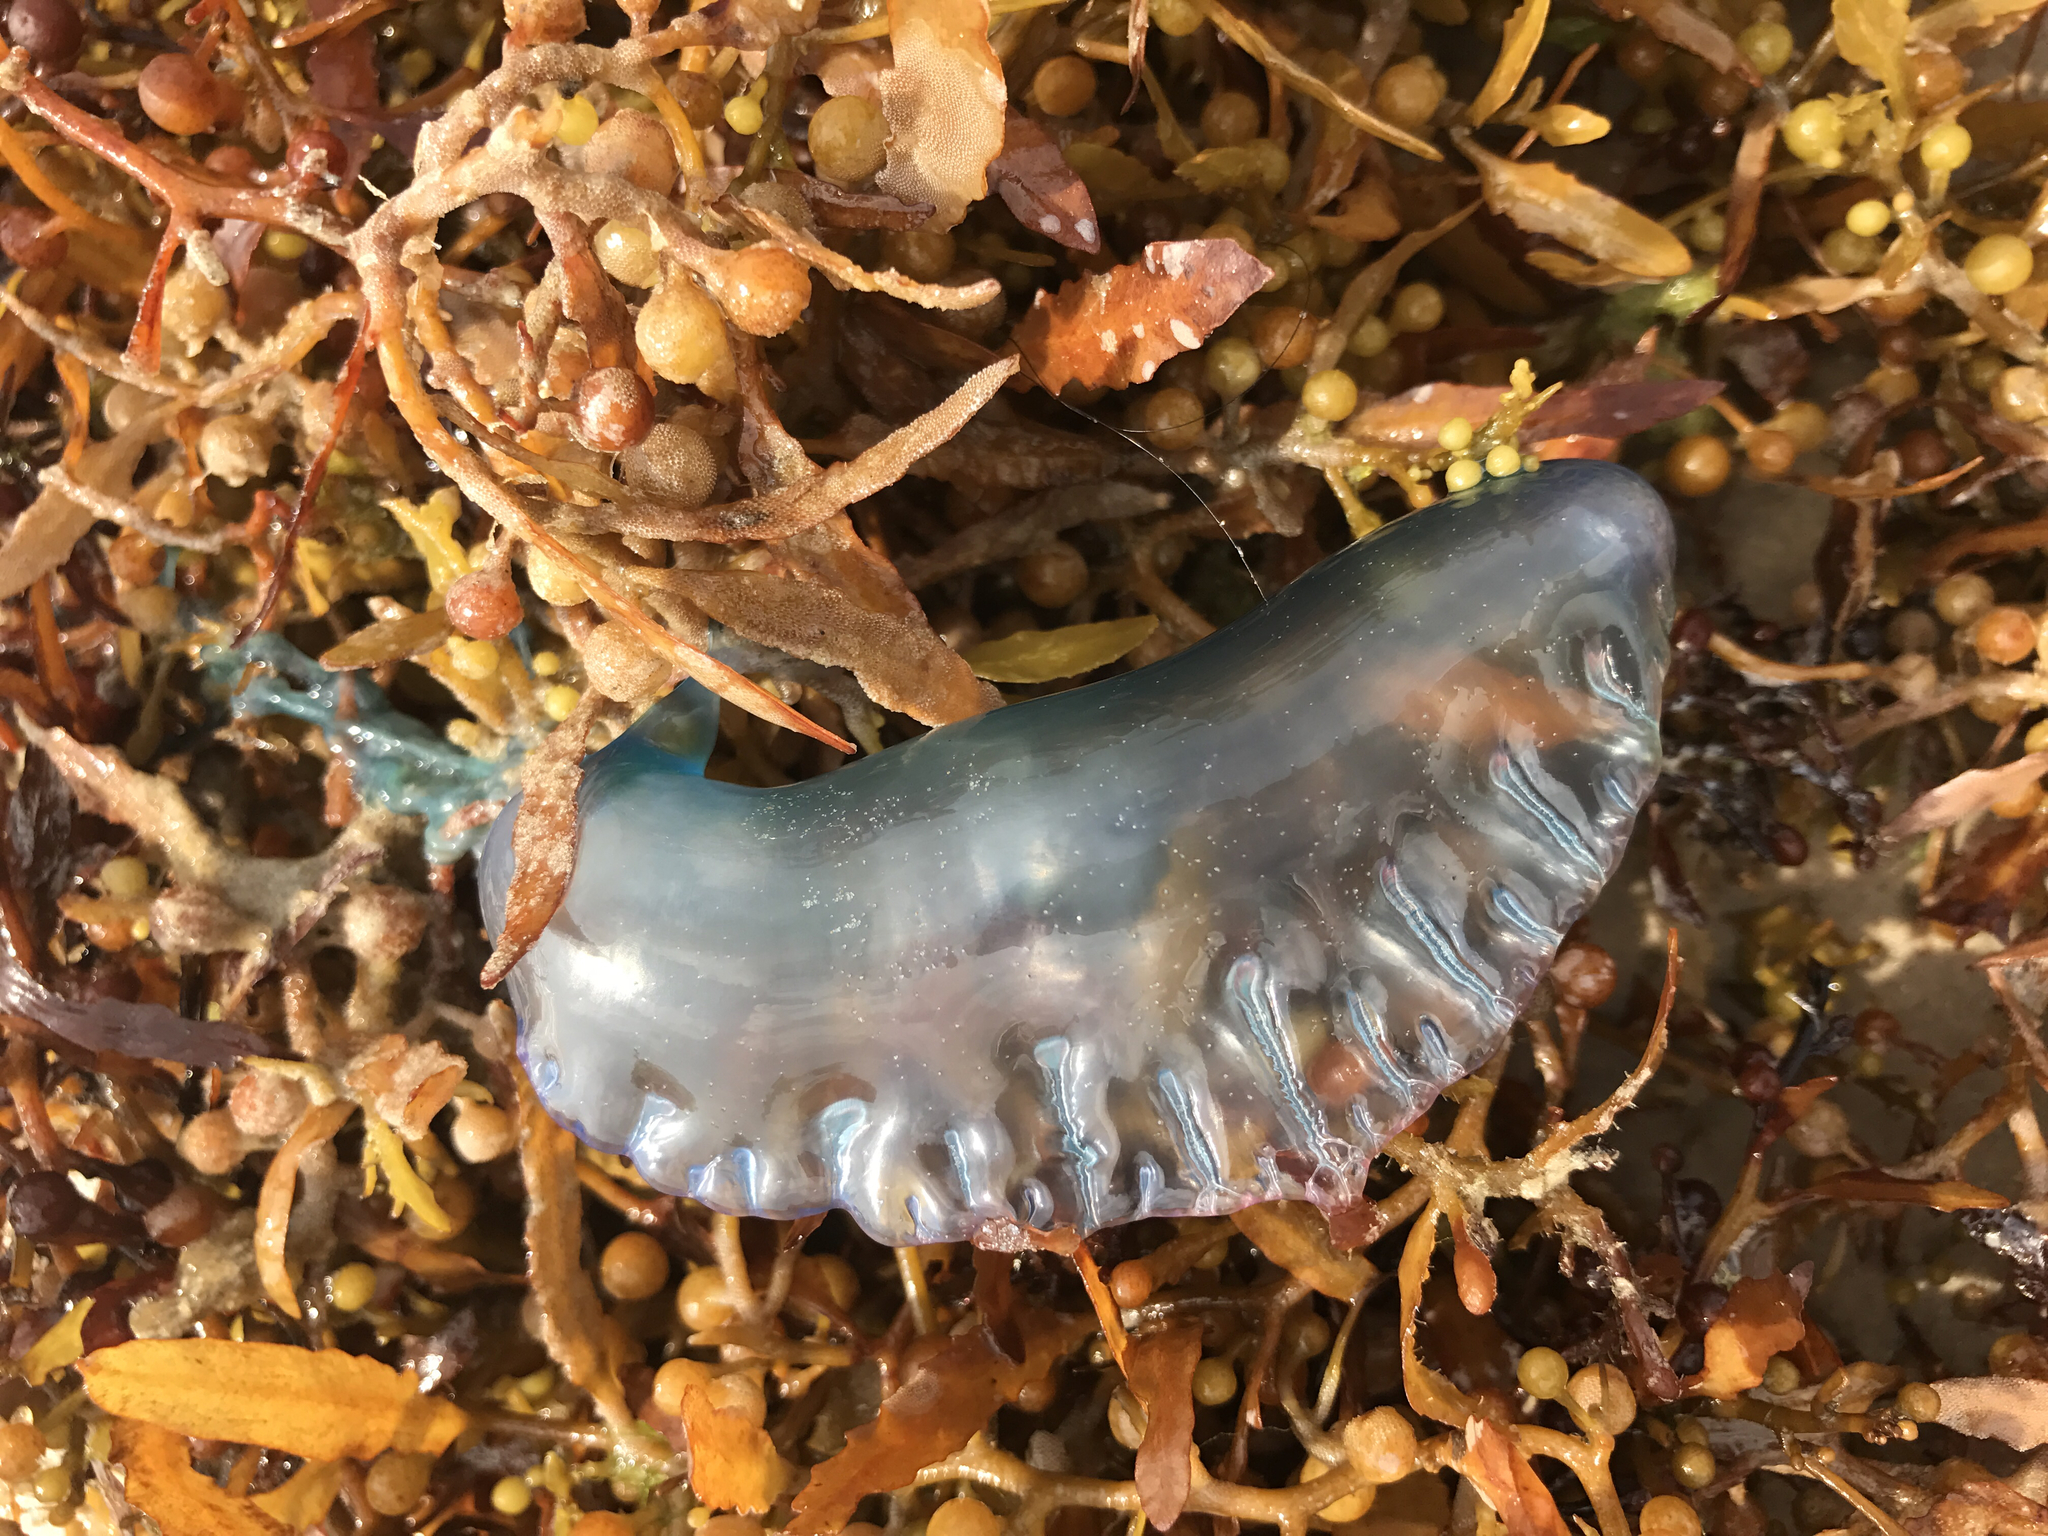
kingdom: Animalia
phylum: Cnidaria
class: Hydrozoa
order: Siphonophorae
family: Physaliidae
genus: Physalia
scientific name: Physalia physalis
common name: Portuguese man-of-war
